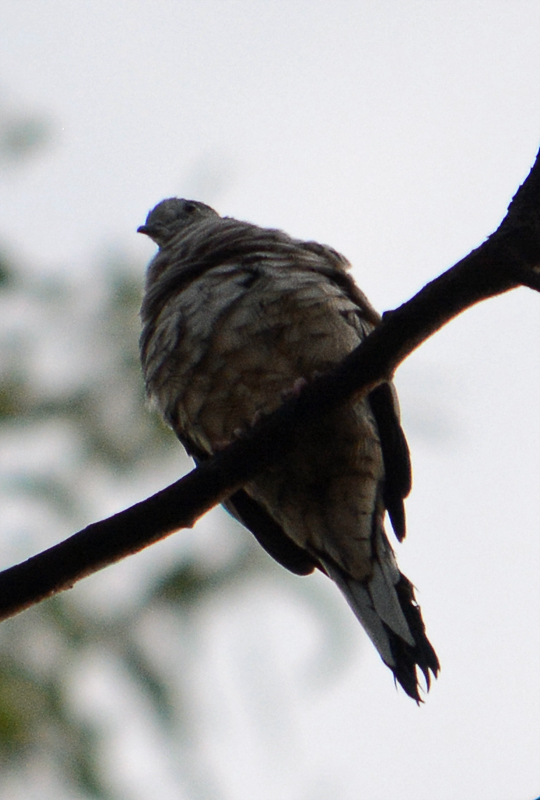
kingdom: Animalia
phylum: Chordata
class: Aves
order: Columbiformes
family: Columbidae
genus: Columbina
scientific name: Columbina inca
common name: Inca dove
